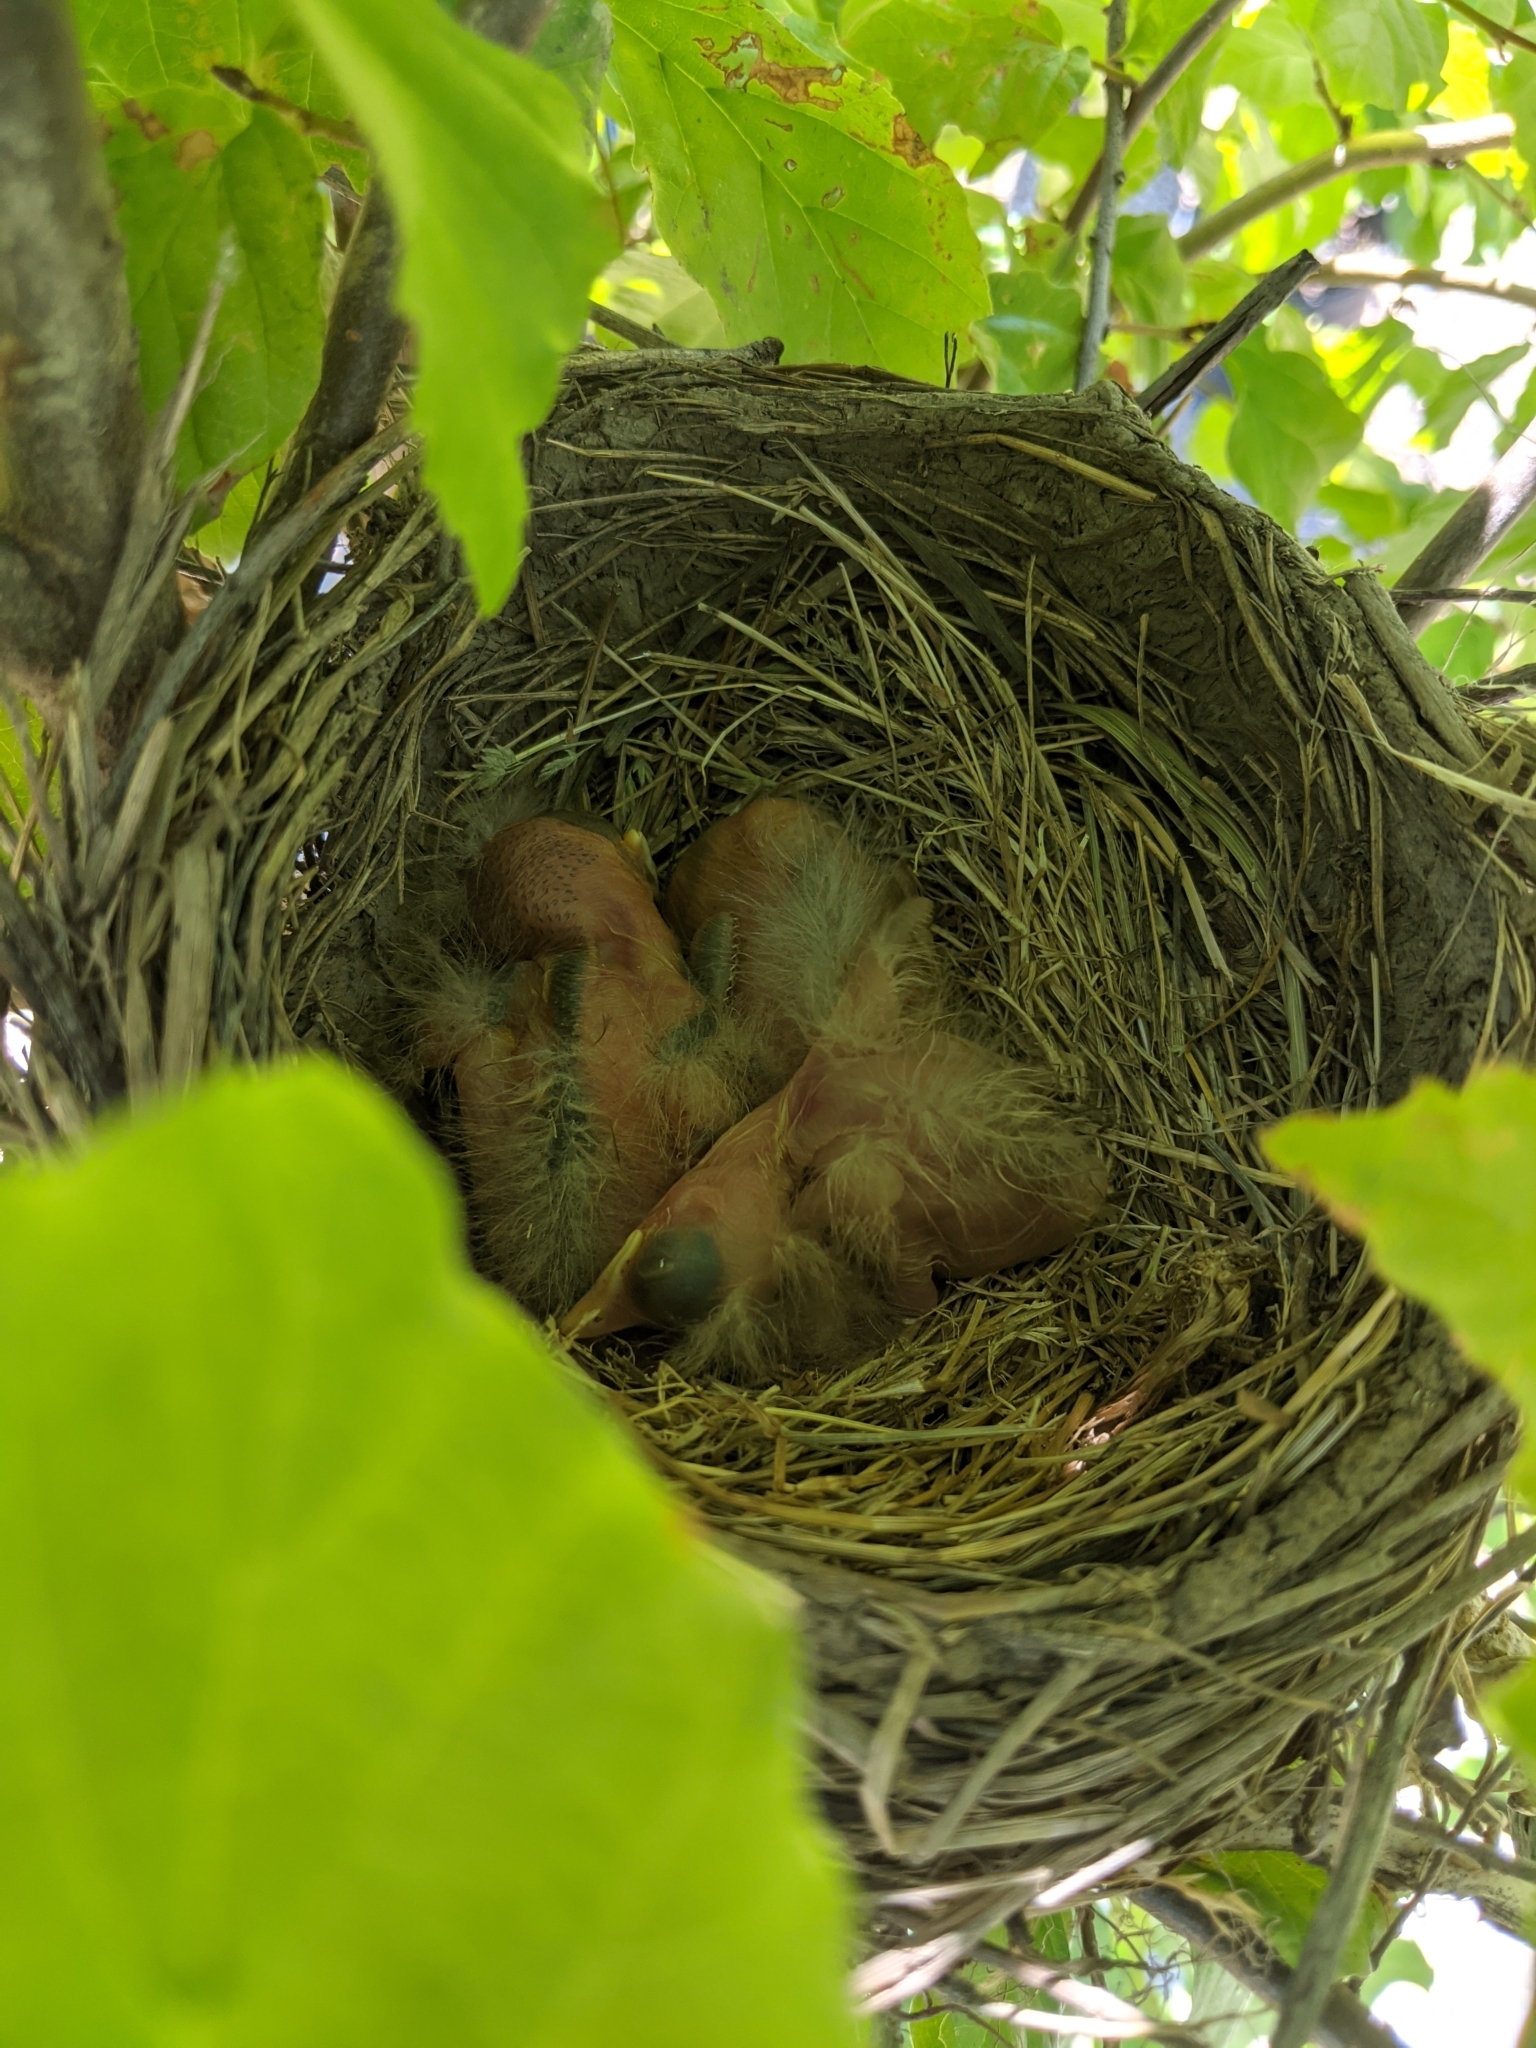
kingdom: Animalia
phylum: Chordata
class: Aves
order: Passeriformes
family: Turdidae
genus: Turdus
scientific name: Turdus migratorius
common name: American robin
